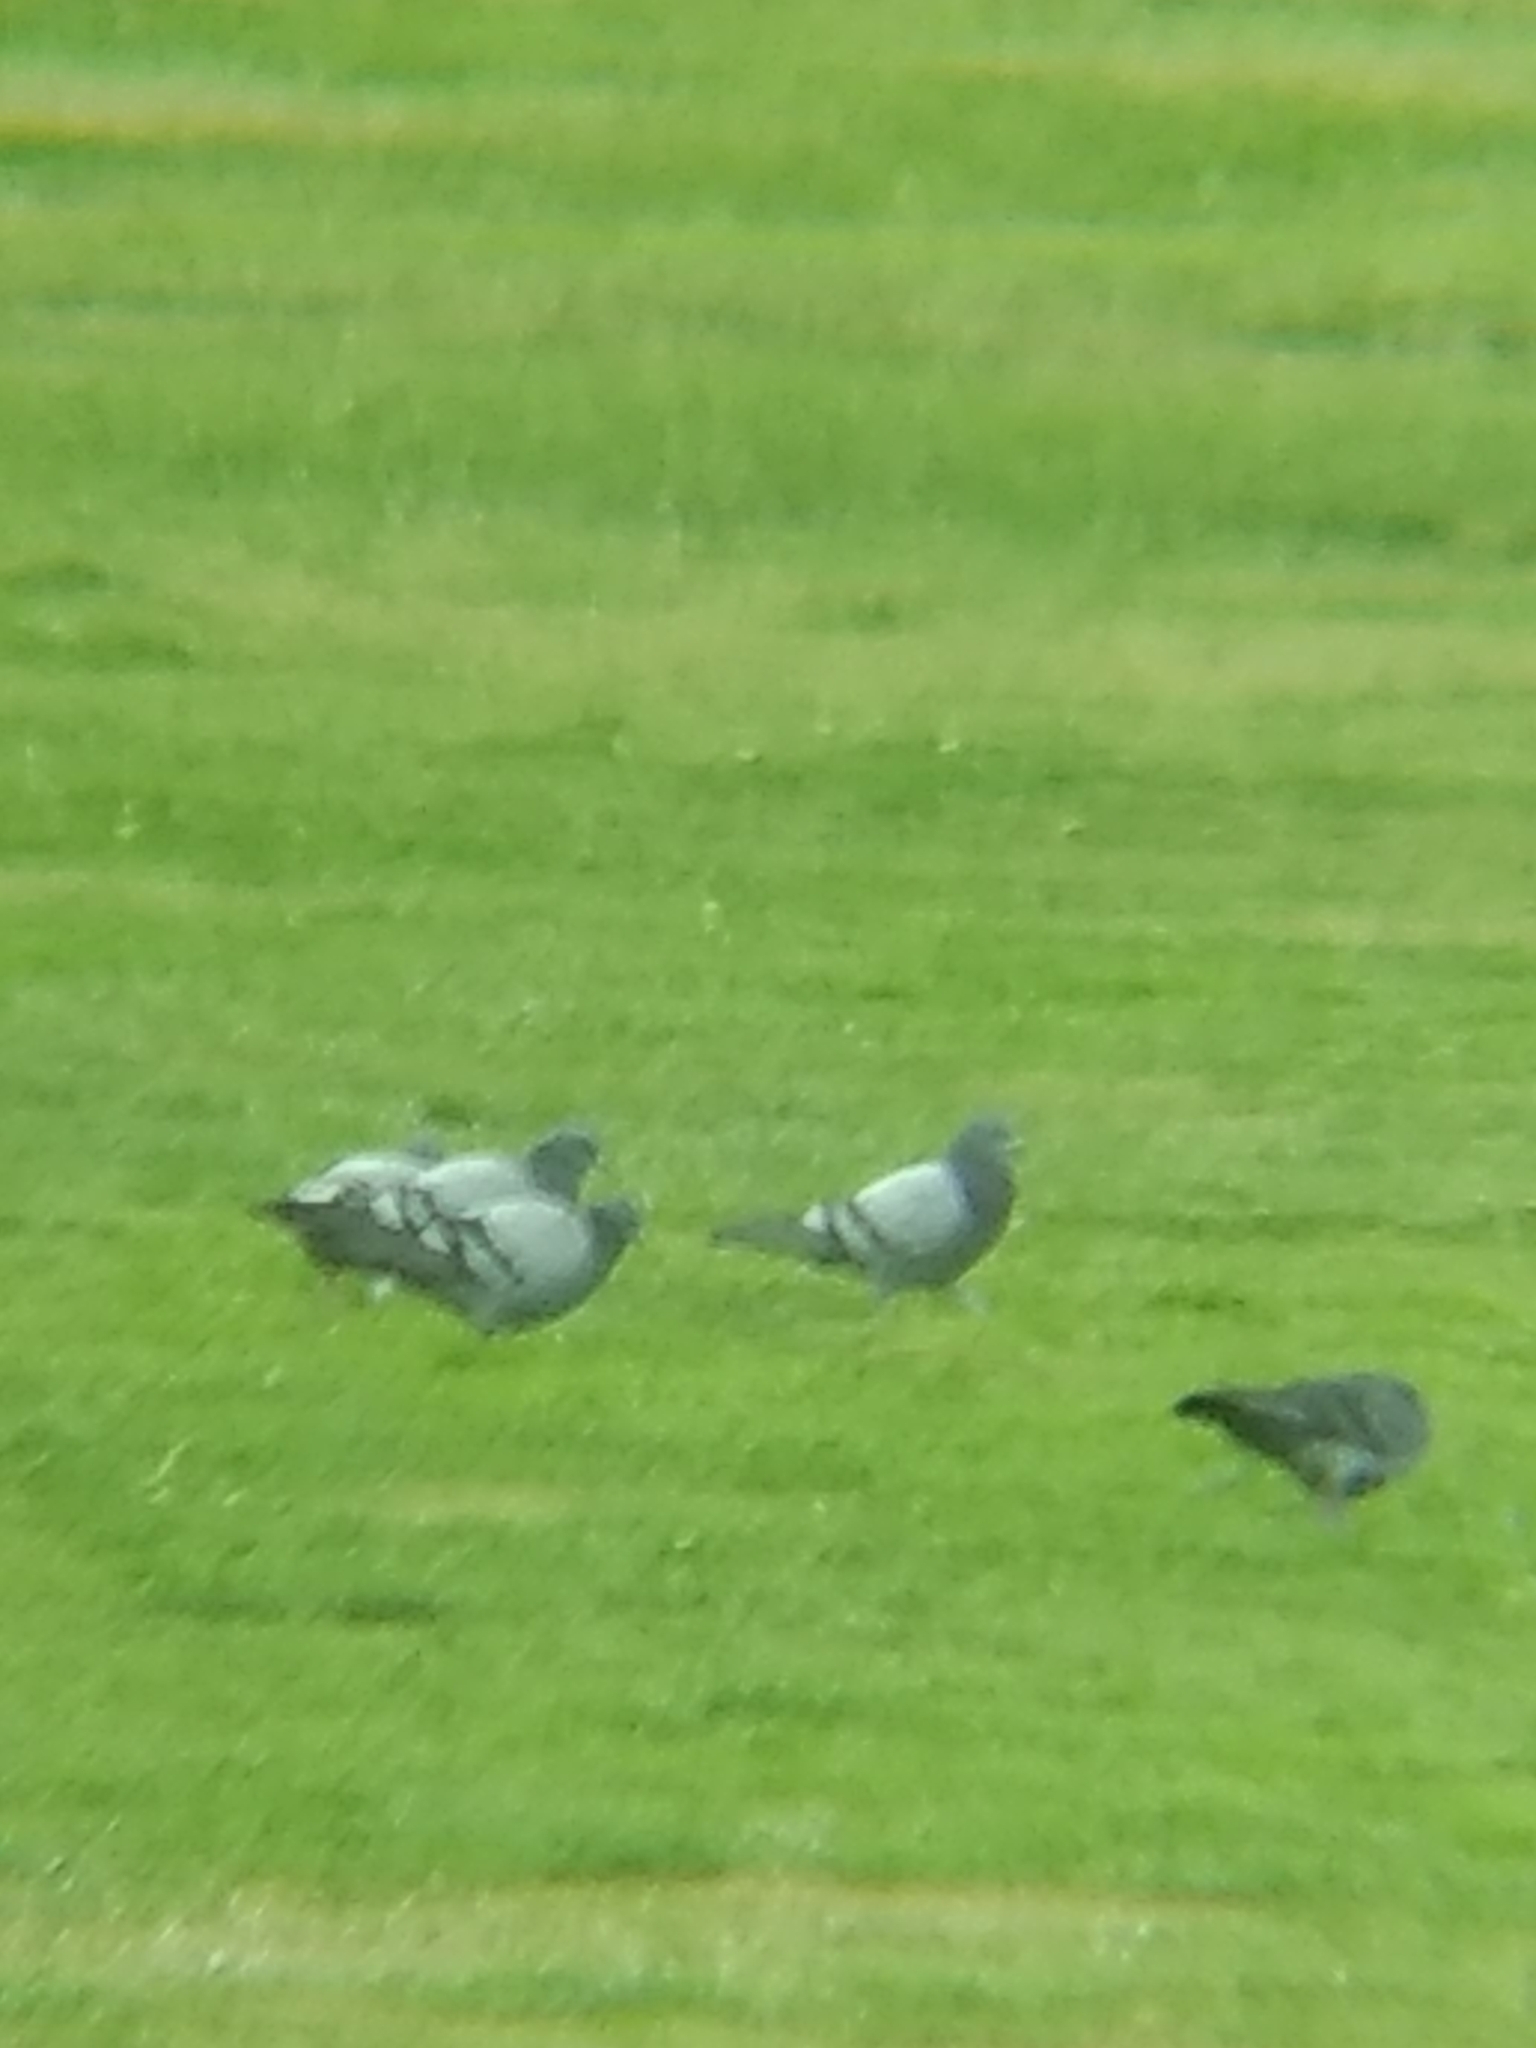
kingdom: Animalia
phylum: Chordata
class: Aves
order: Columbiformes
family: Columbidae
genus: Columba
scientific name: Columba livia
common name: Rock pigeon
